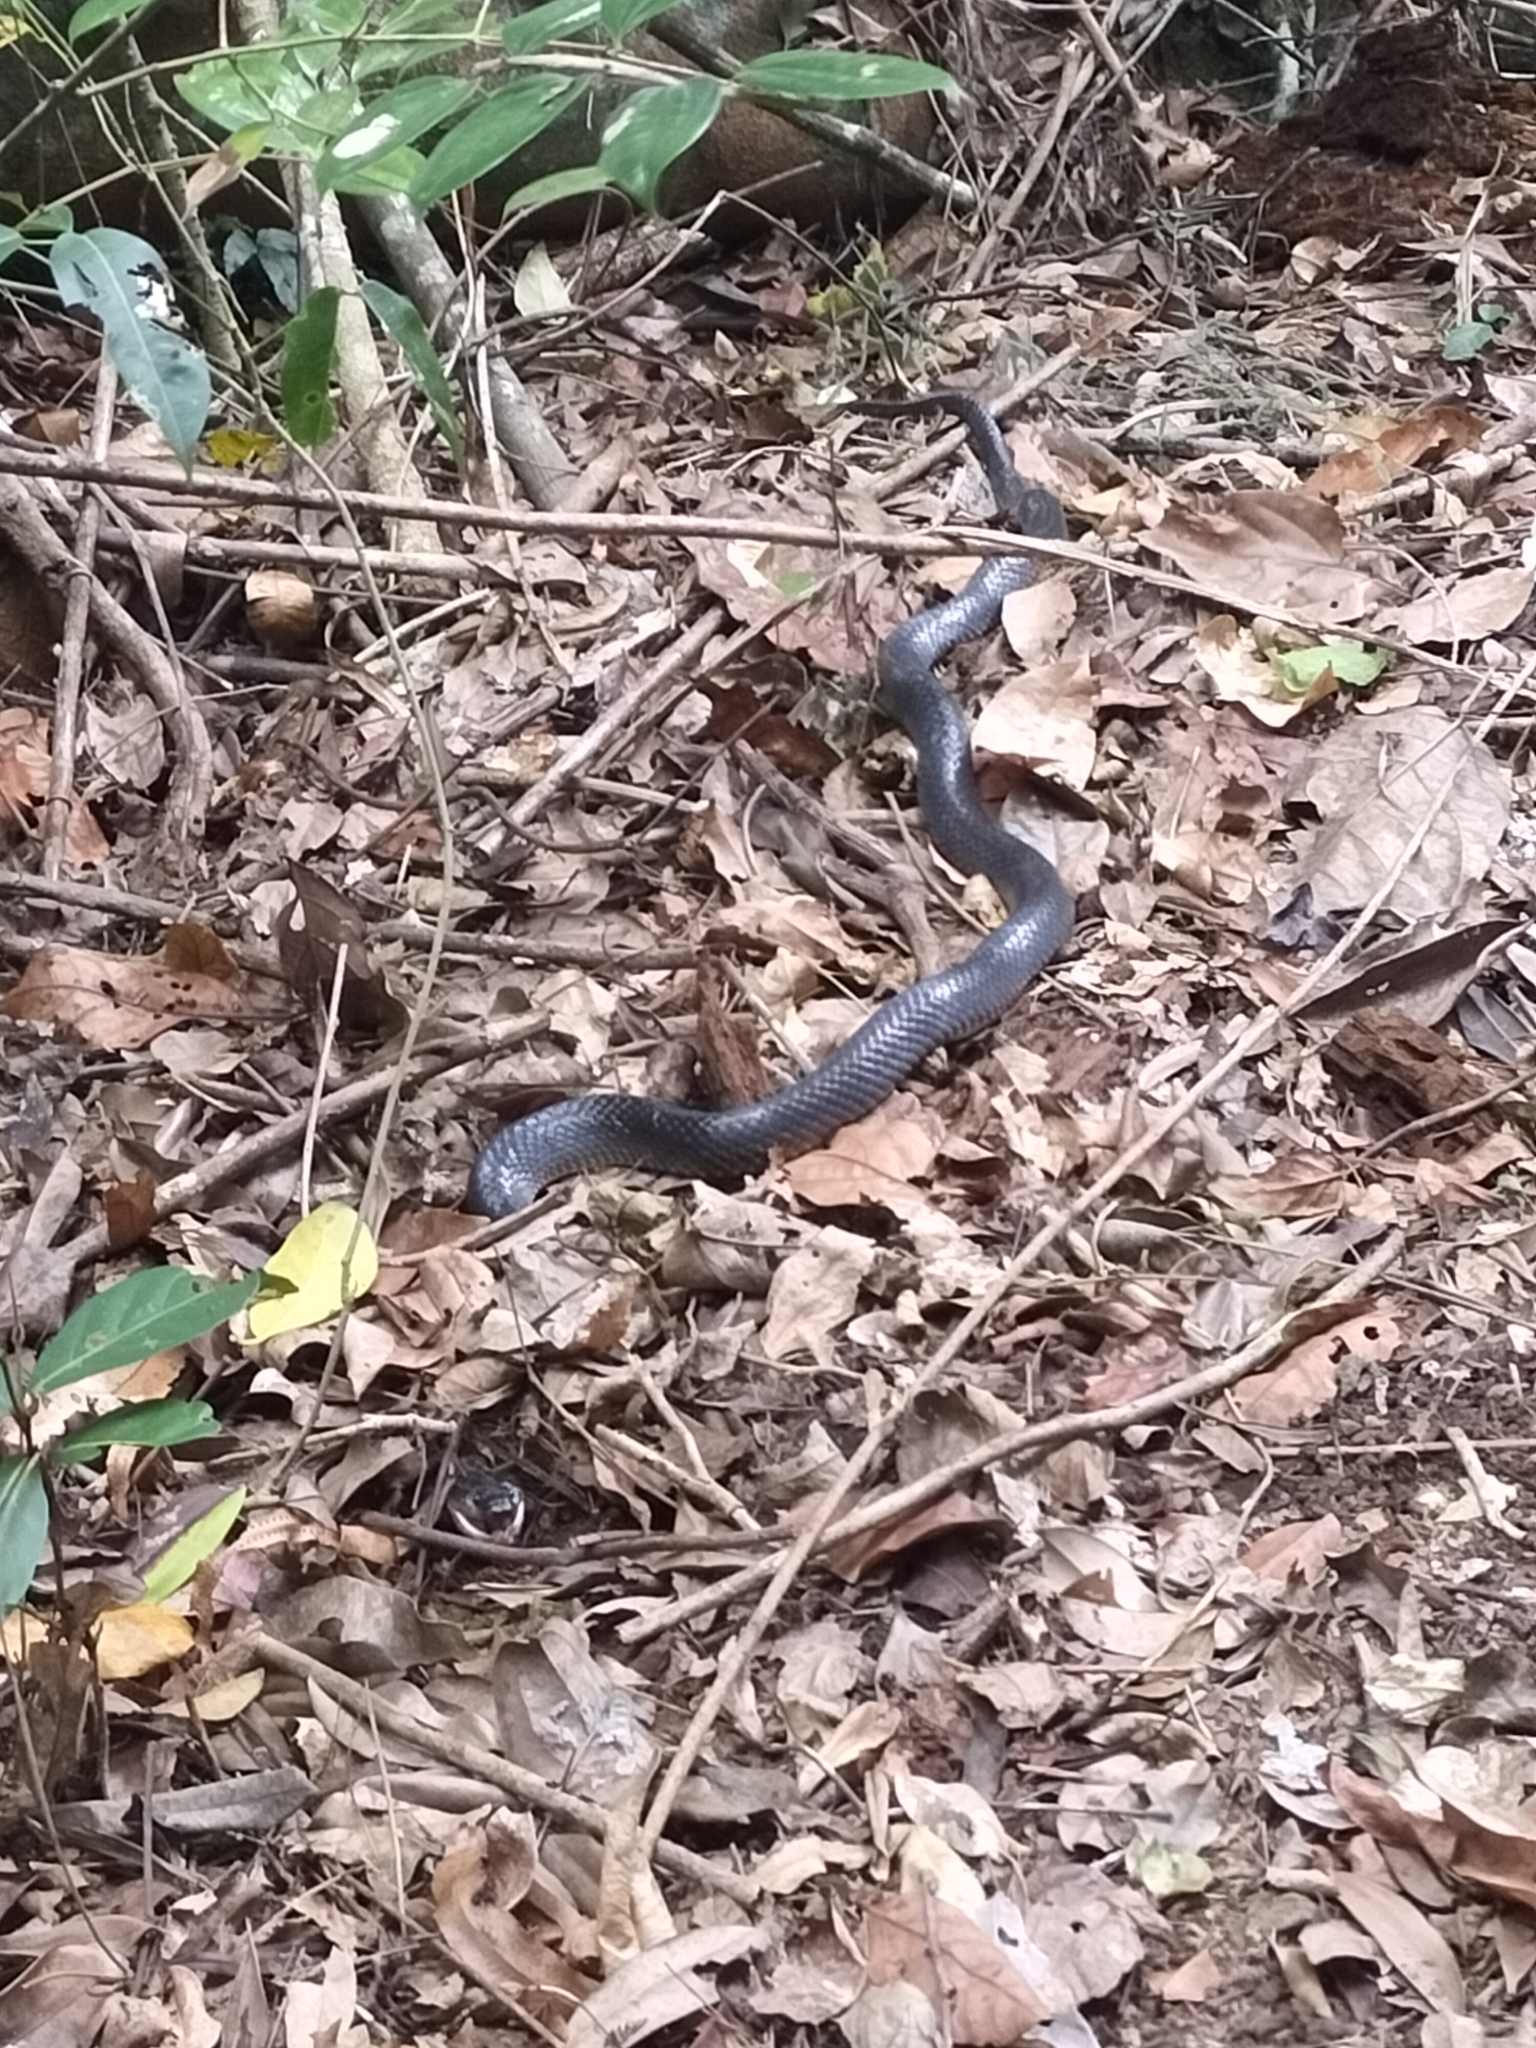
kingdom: Animalia
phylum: Chordata
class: Squamata
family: Colubridae
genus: Stegonotus
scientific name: Stegonotus australis
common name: Australian groundsnake
